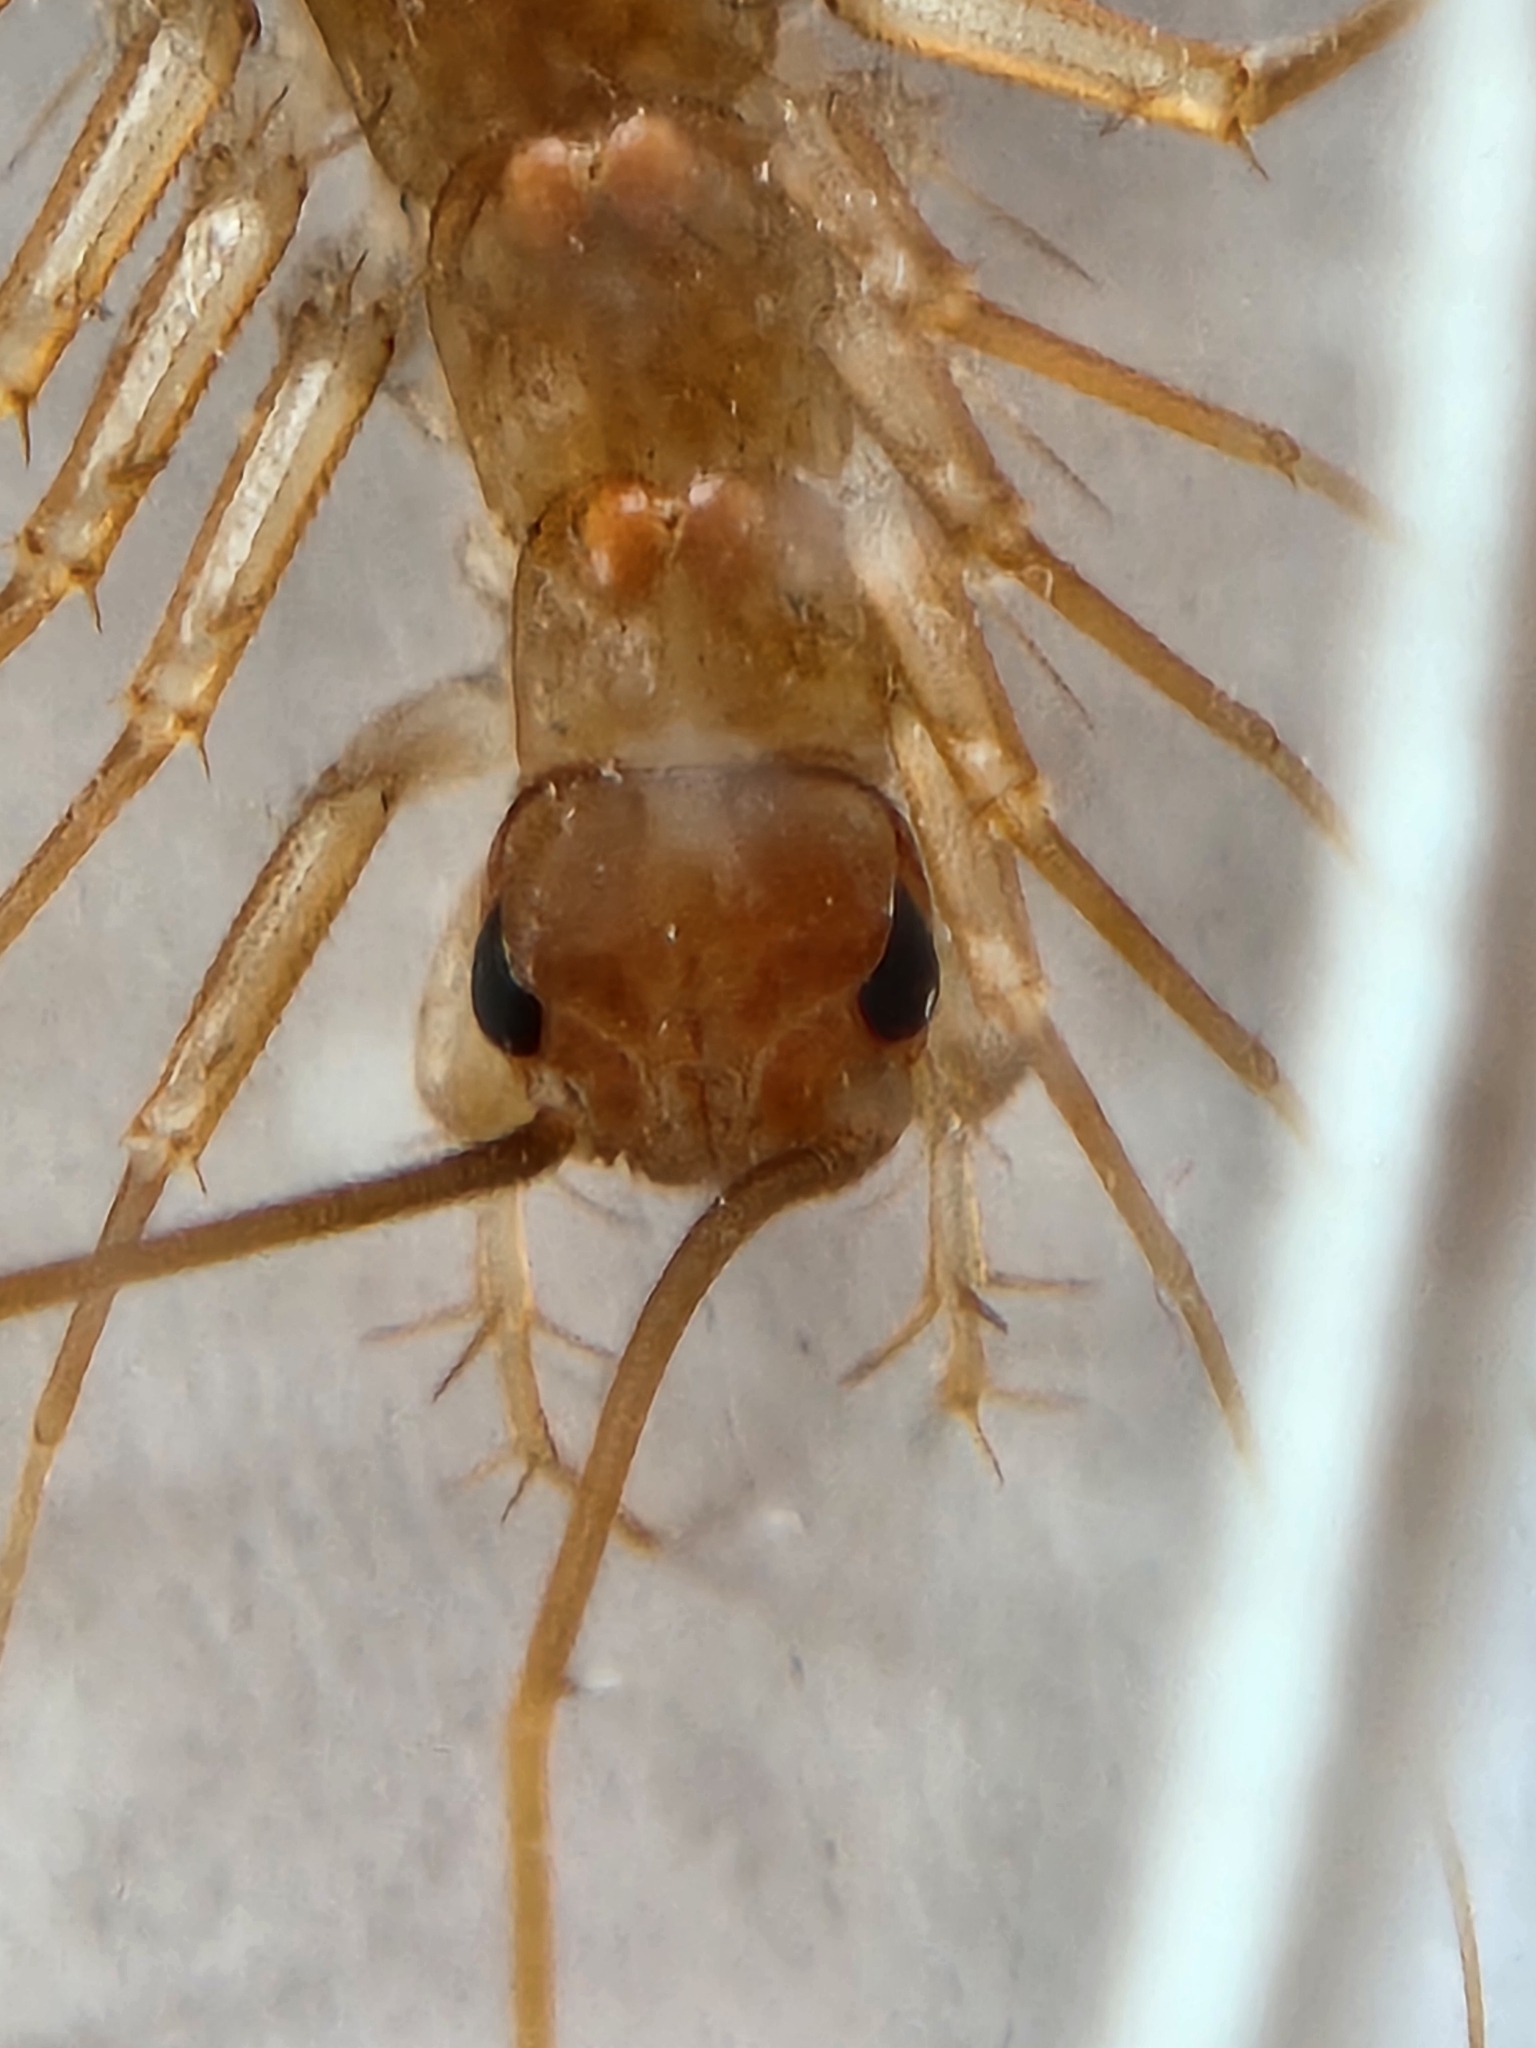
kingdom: Animalia
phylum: Arthropoda
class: Chilopoda
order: Scutigeromorpha
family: Scutigeridae
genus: Scutigera
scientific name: Scutigera linceci
